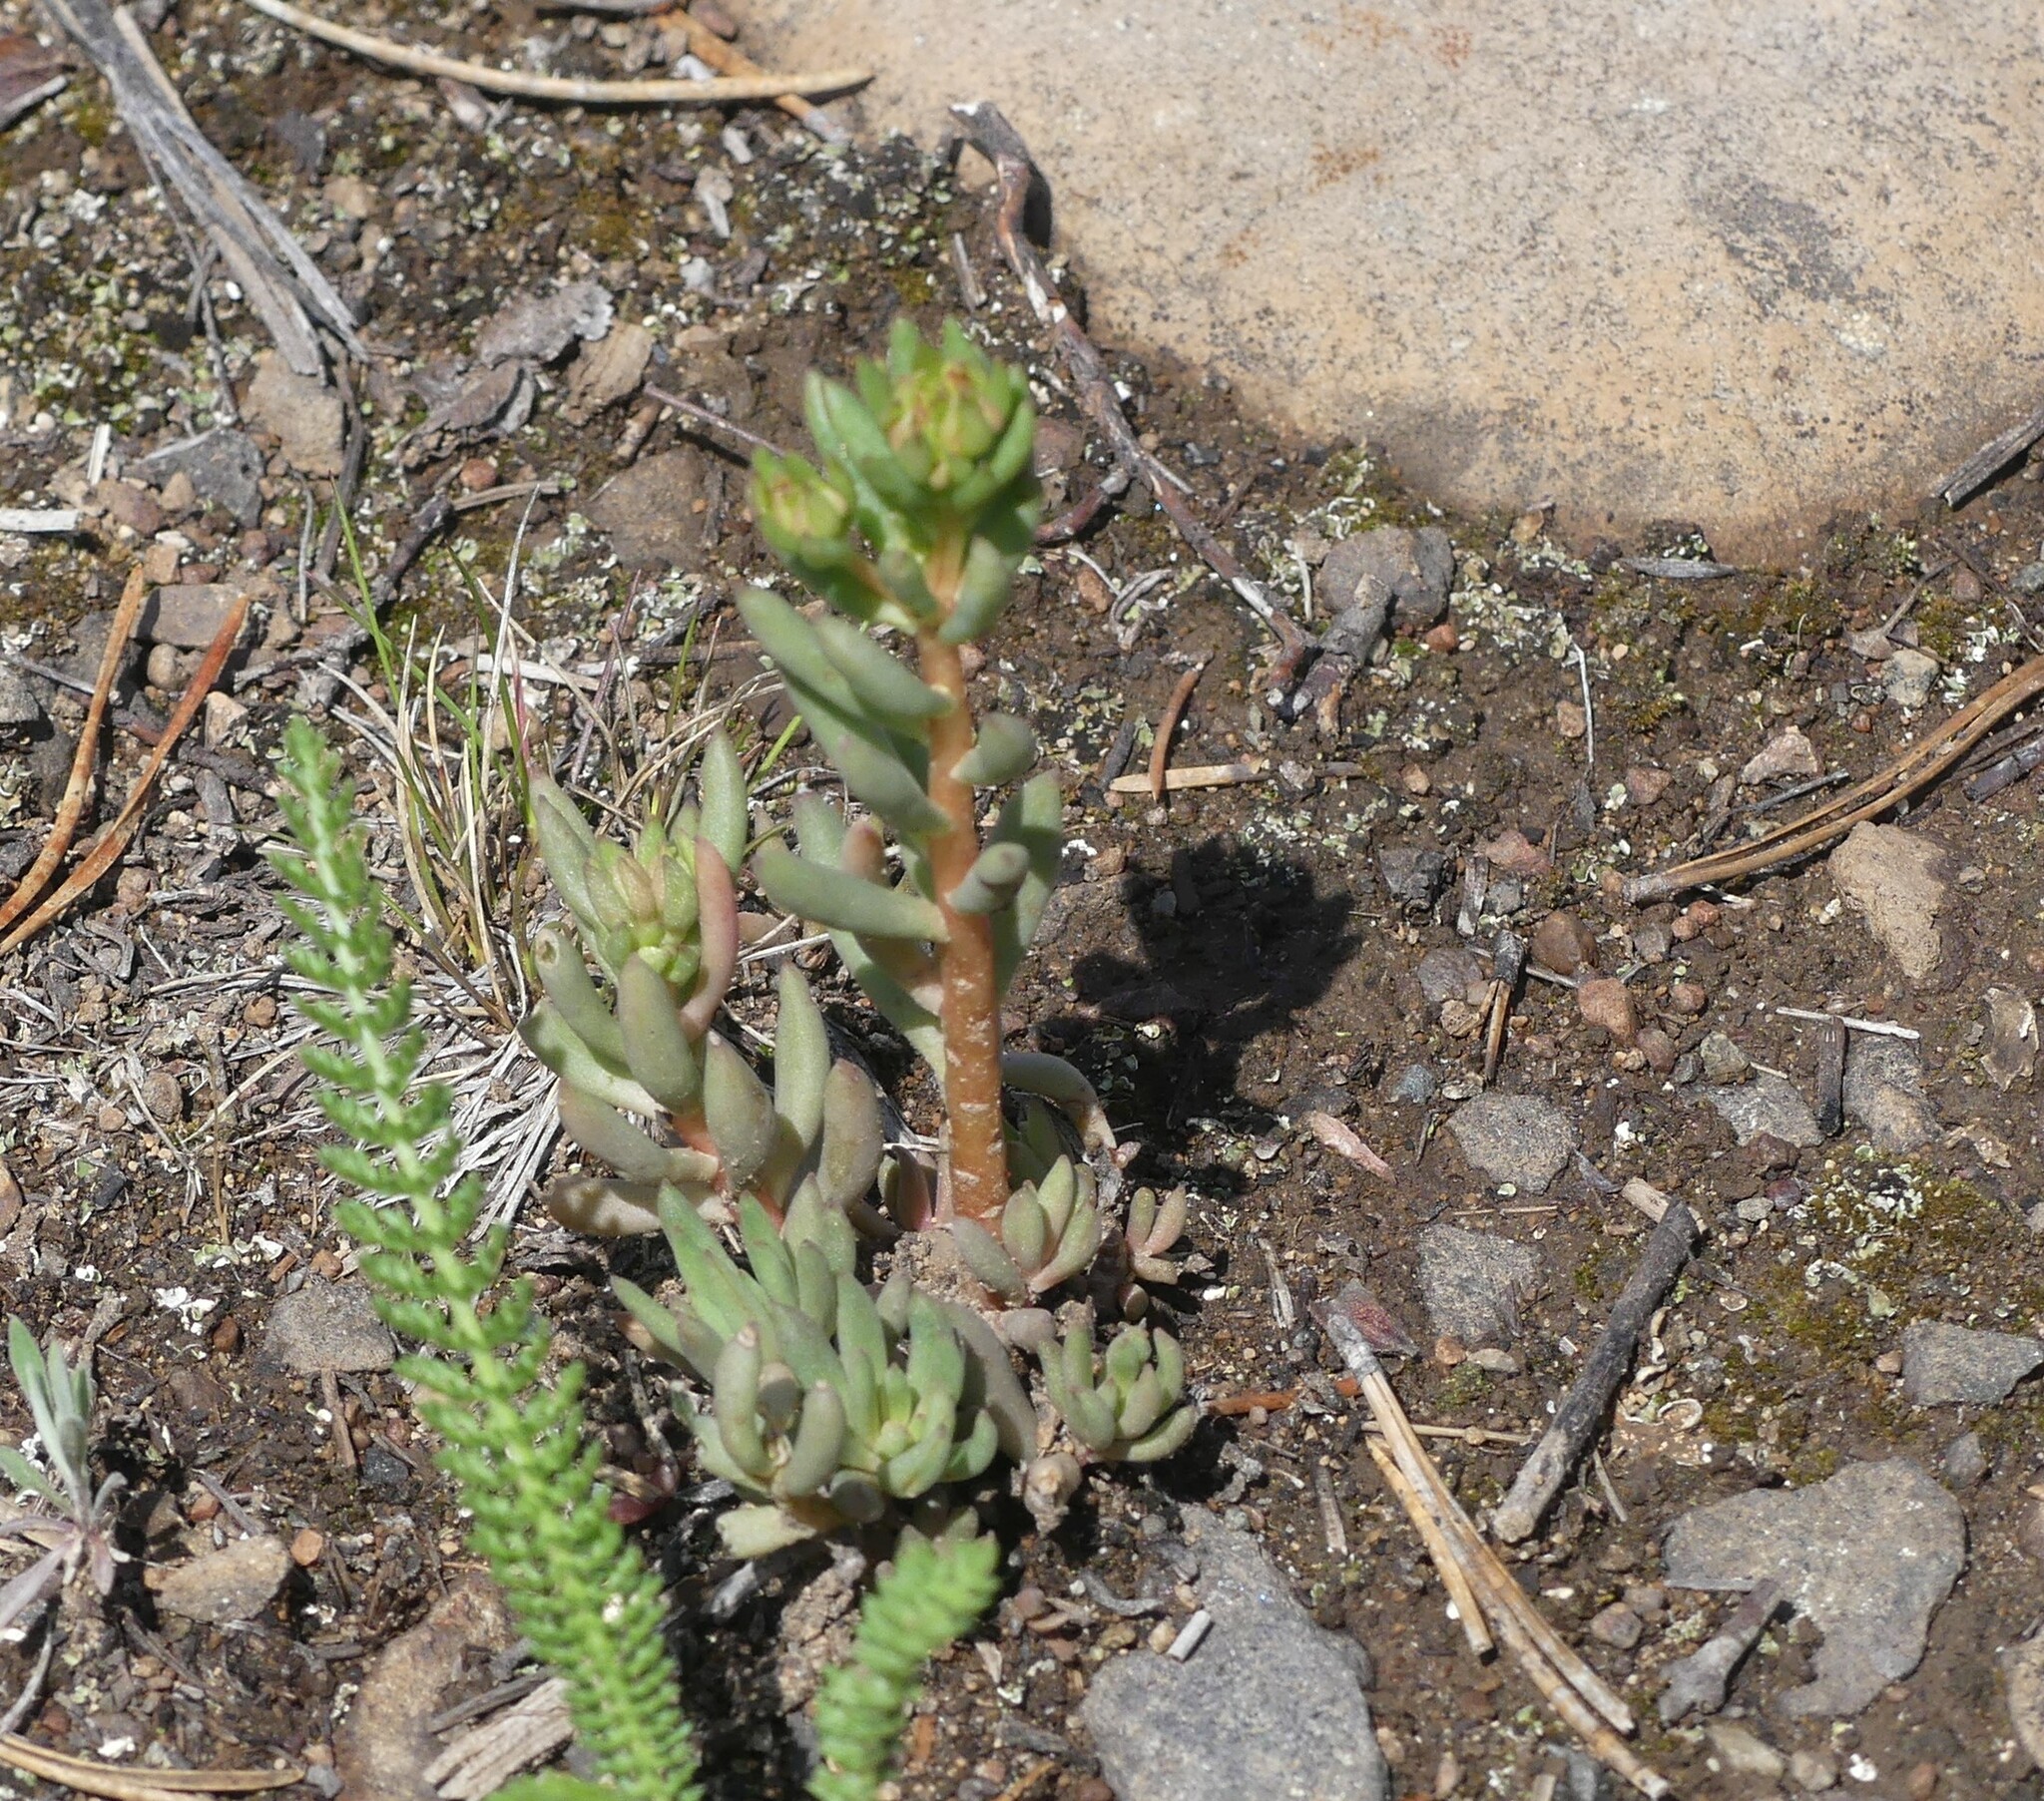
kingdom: Plantae
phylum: Tracheophyta
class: Magnoliopsida
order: Saxifragales
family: Crassulaceae
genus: Sedum
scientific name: Sedum lanceolatum
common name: Common stonecrop
